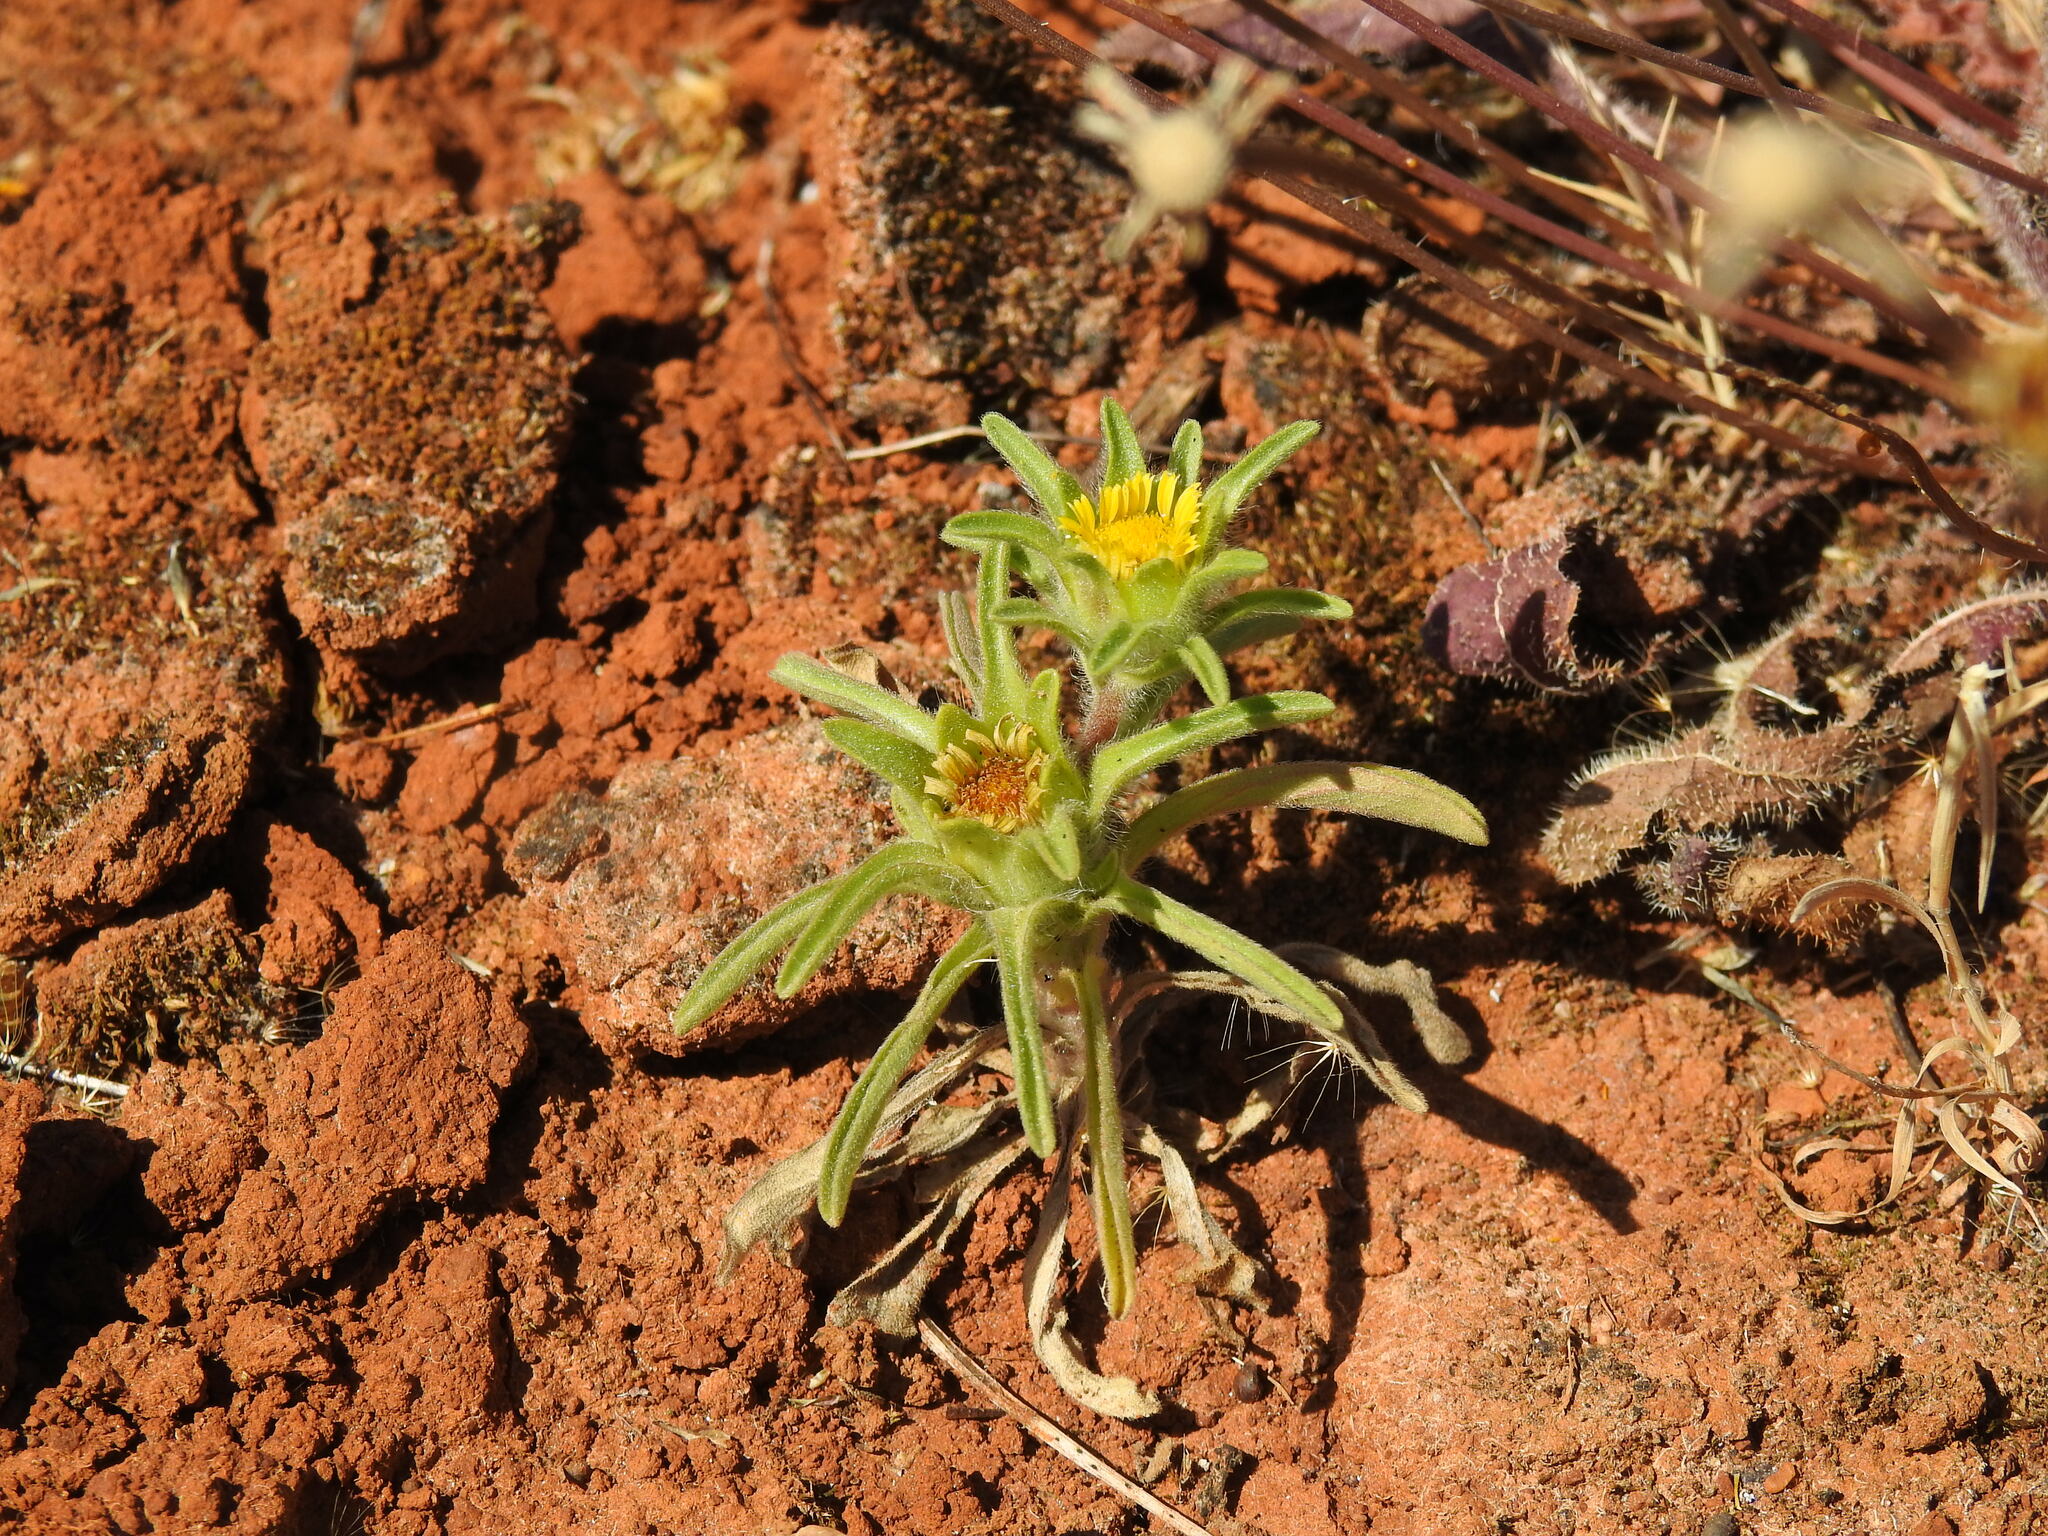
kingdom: Plantae
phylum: Tracheophyta
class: Magnoliopsida
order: Asterales
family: Asteraceae
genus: Asteriscus
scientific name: Asteriscus aquaticus
